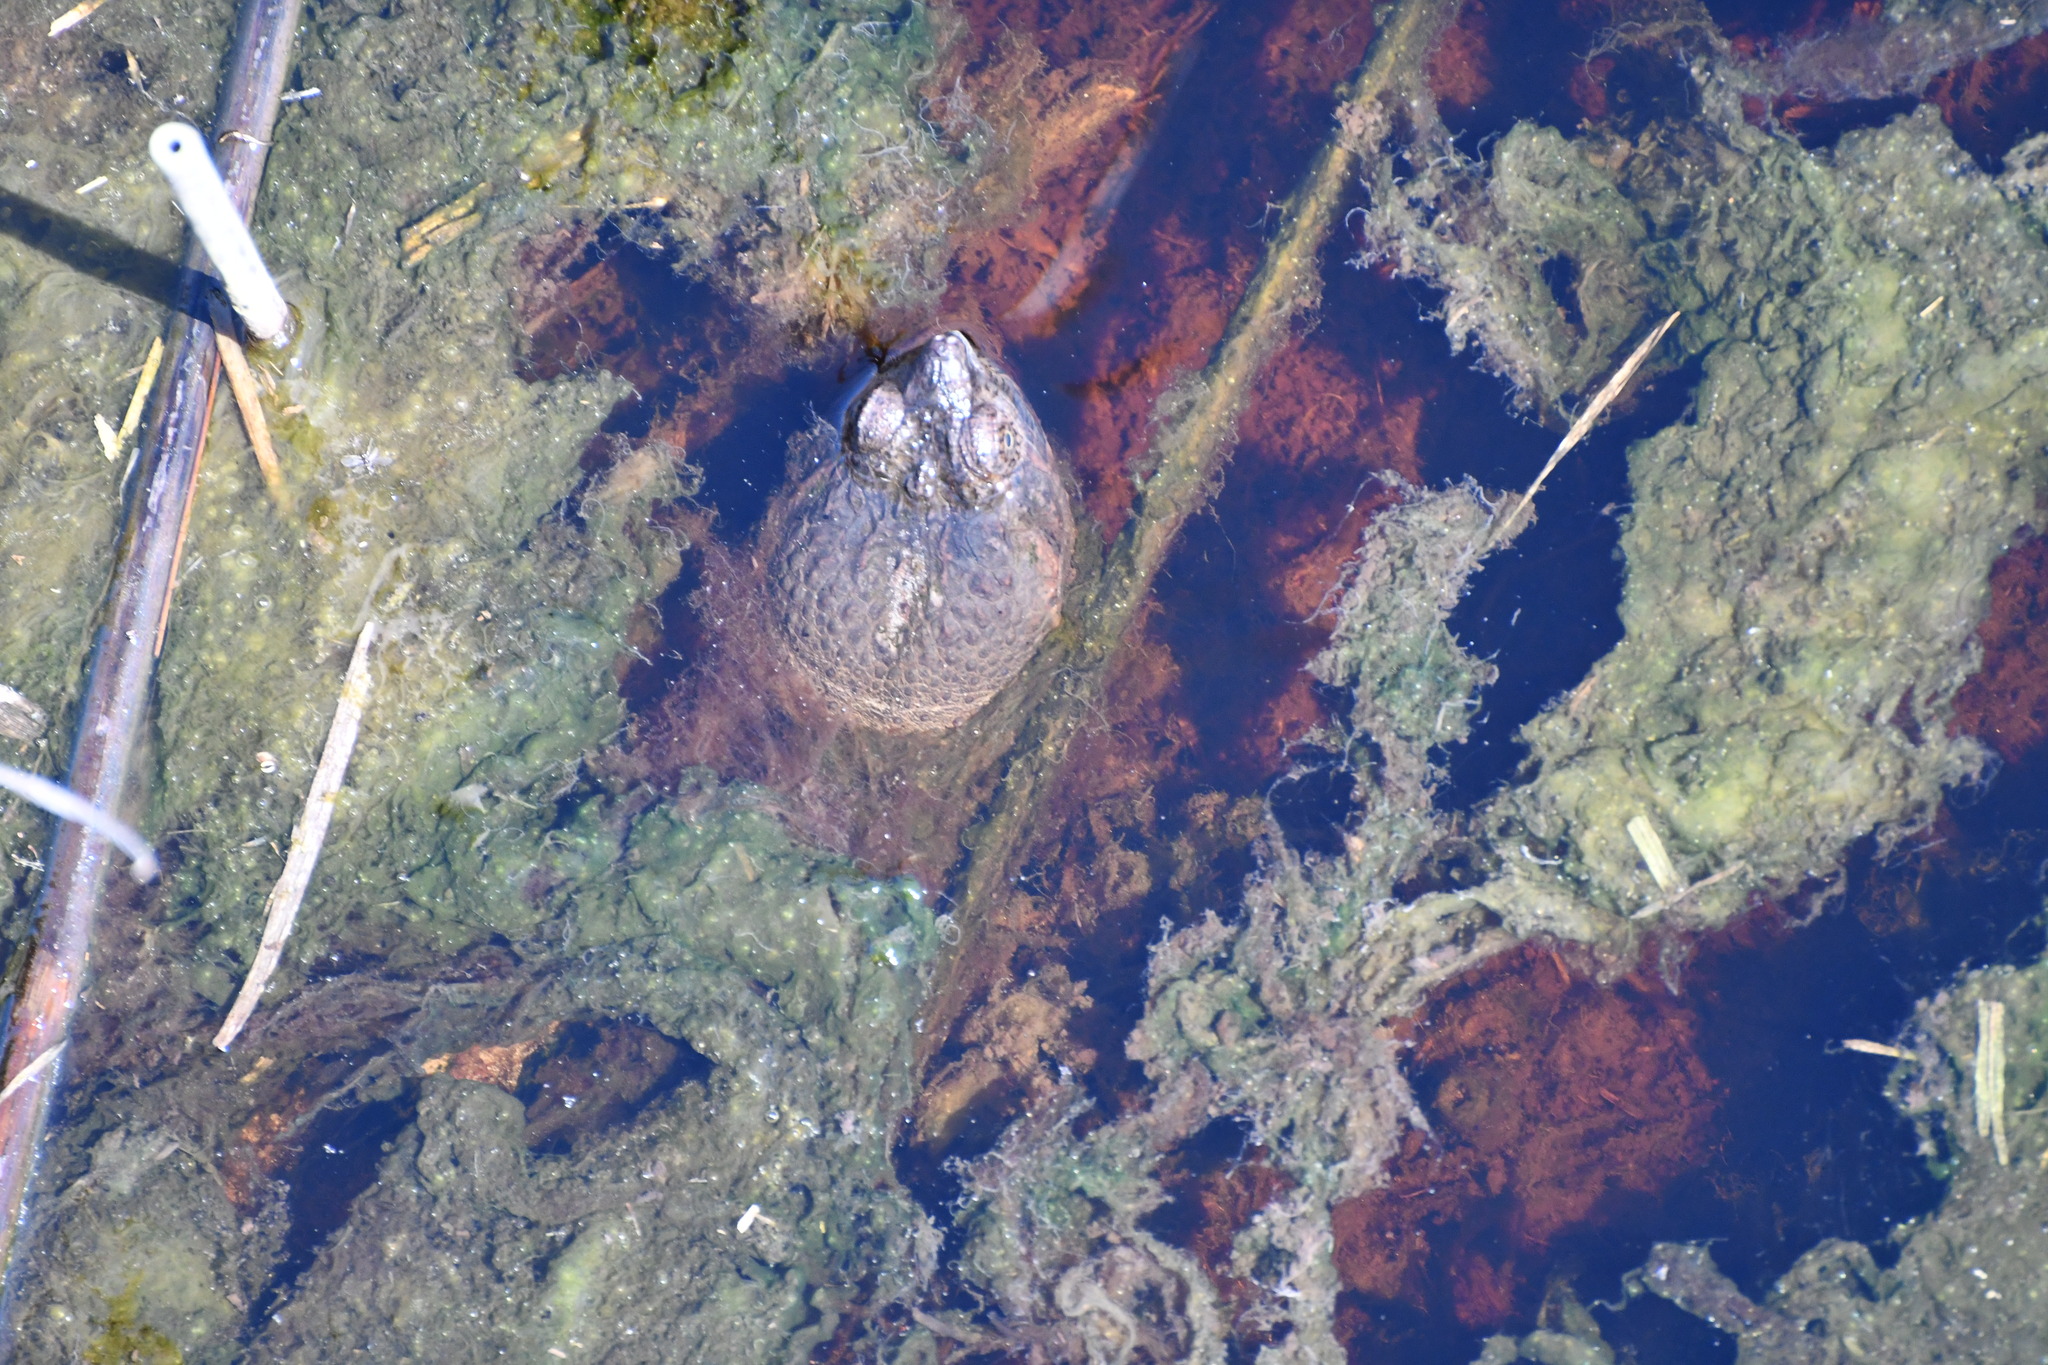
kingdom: Animalia
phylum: Chordata
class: Testudines
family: Chelydridae
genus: Chelydra
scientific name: Chelydra serpentina
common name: Common snapping turtle
